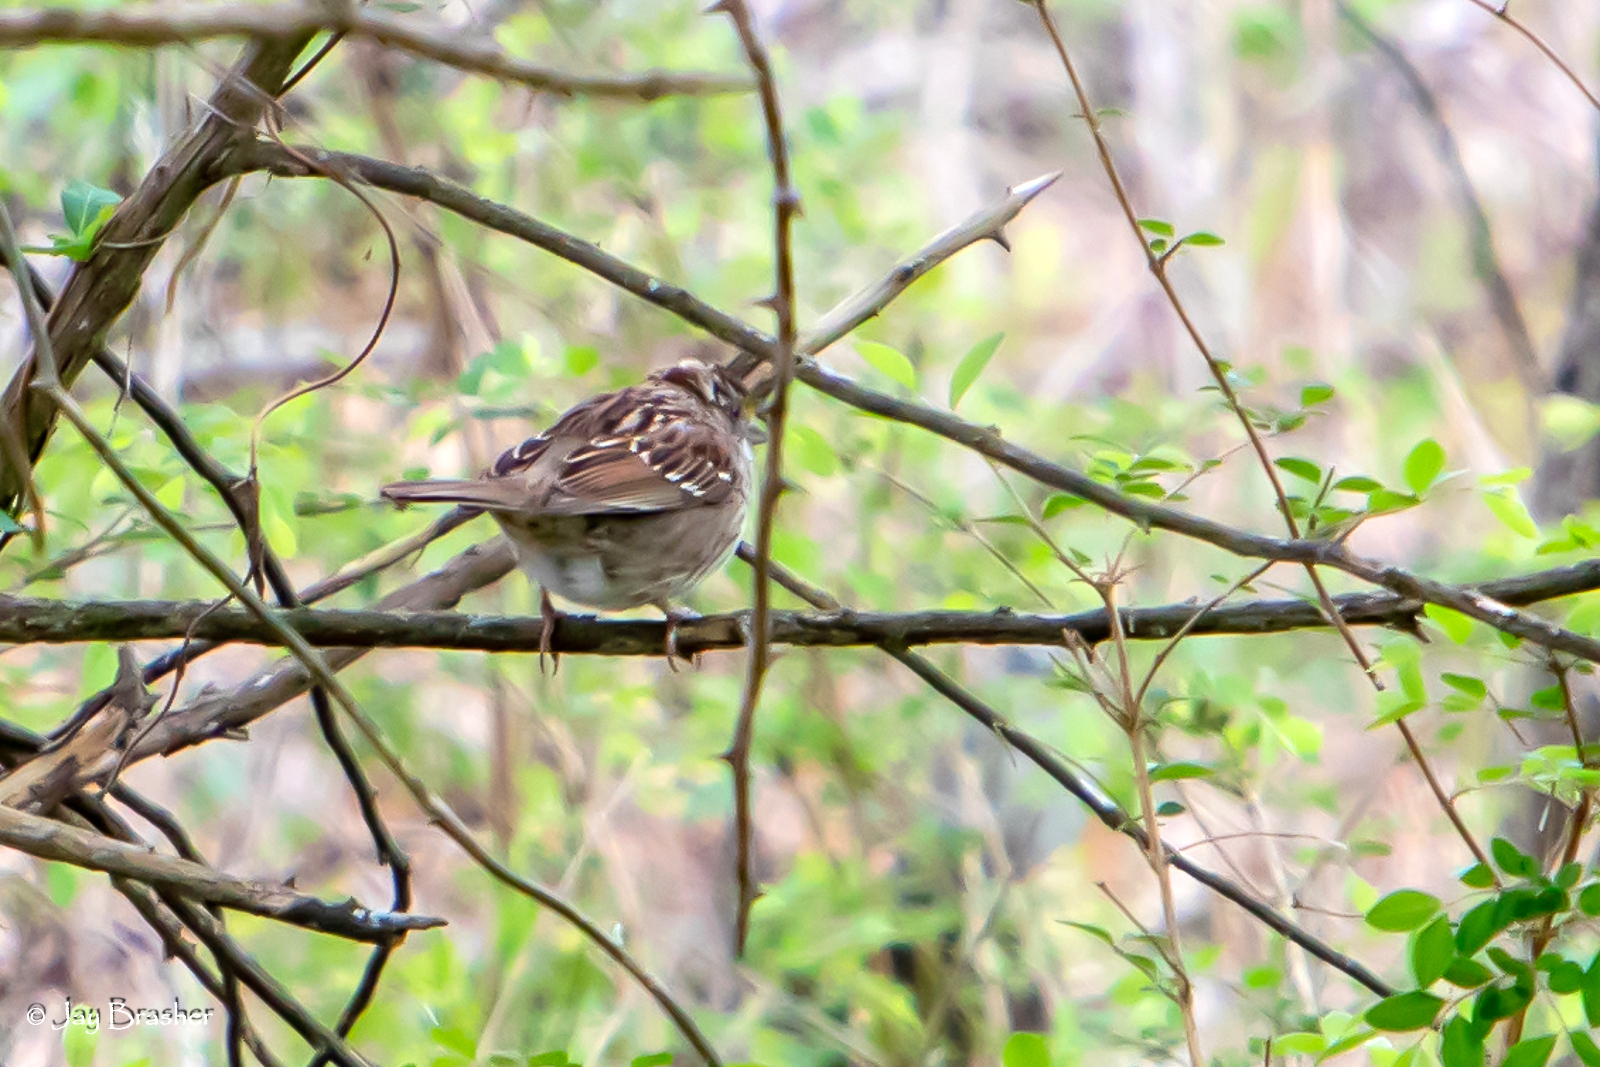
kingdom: Animalia
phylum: Chordata
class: Aves
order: Passeriformes
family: Passerellidae
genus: Zonotrichia
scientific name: Zonotrichia albicollis
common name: White-throated sparrow
